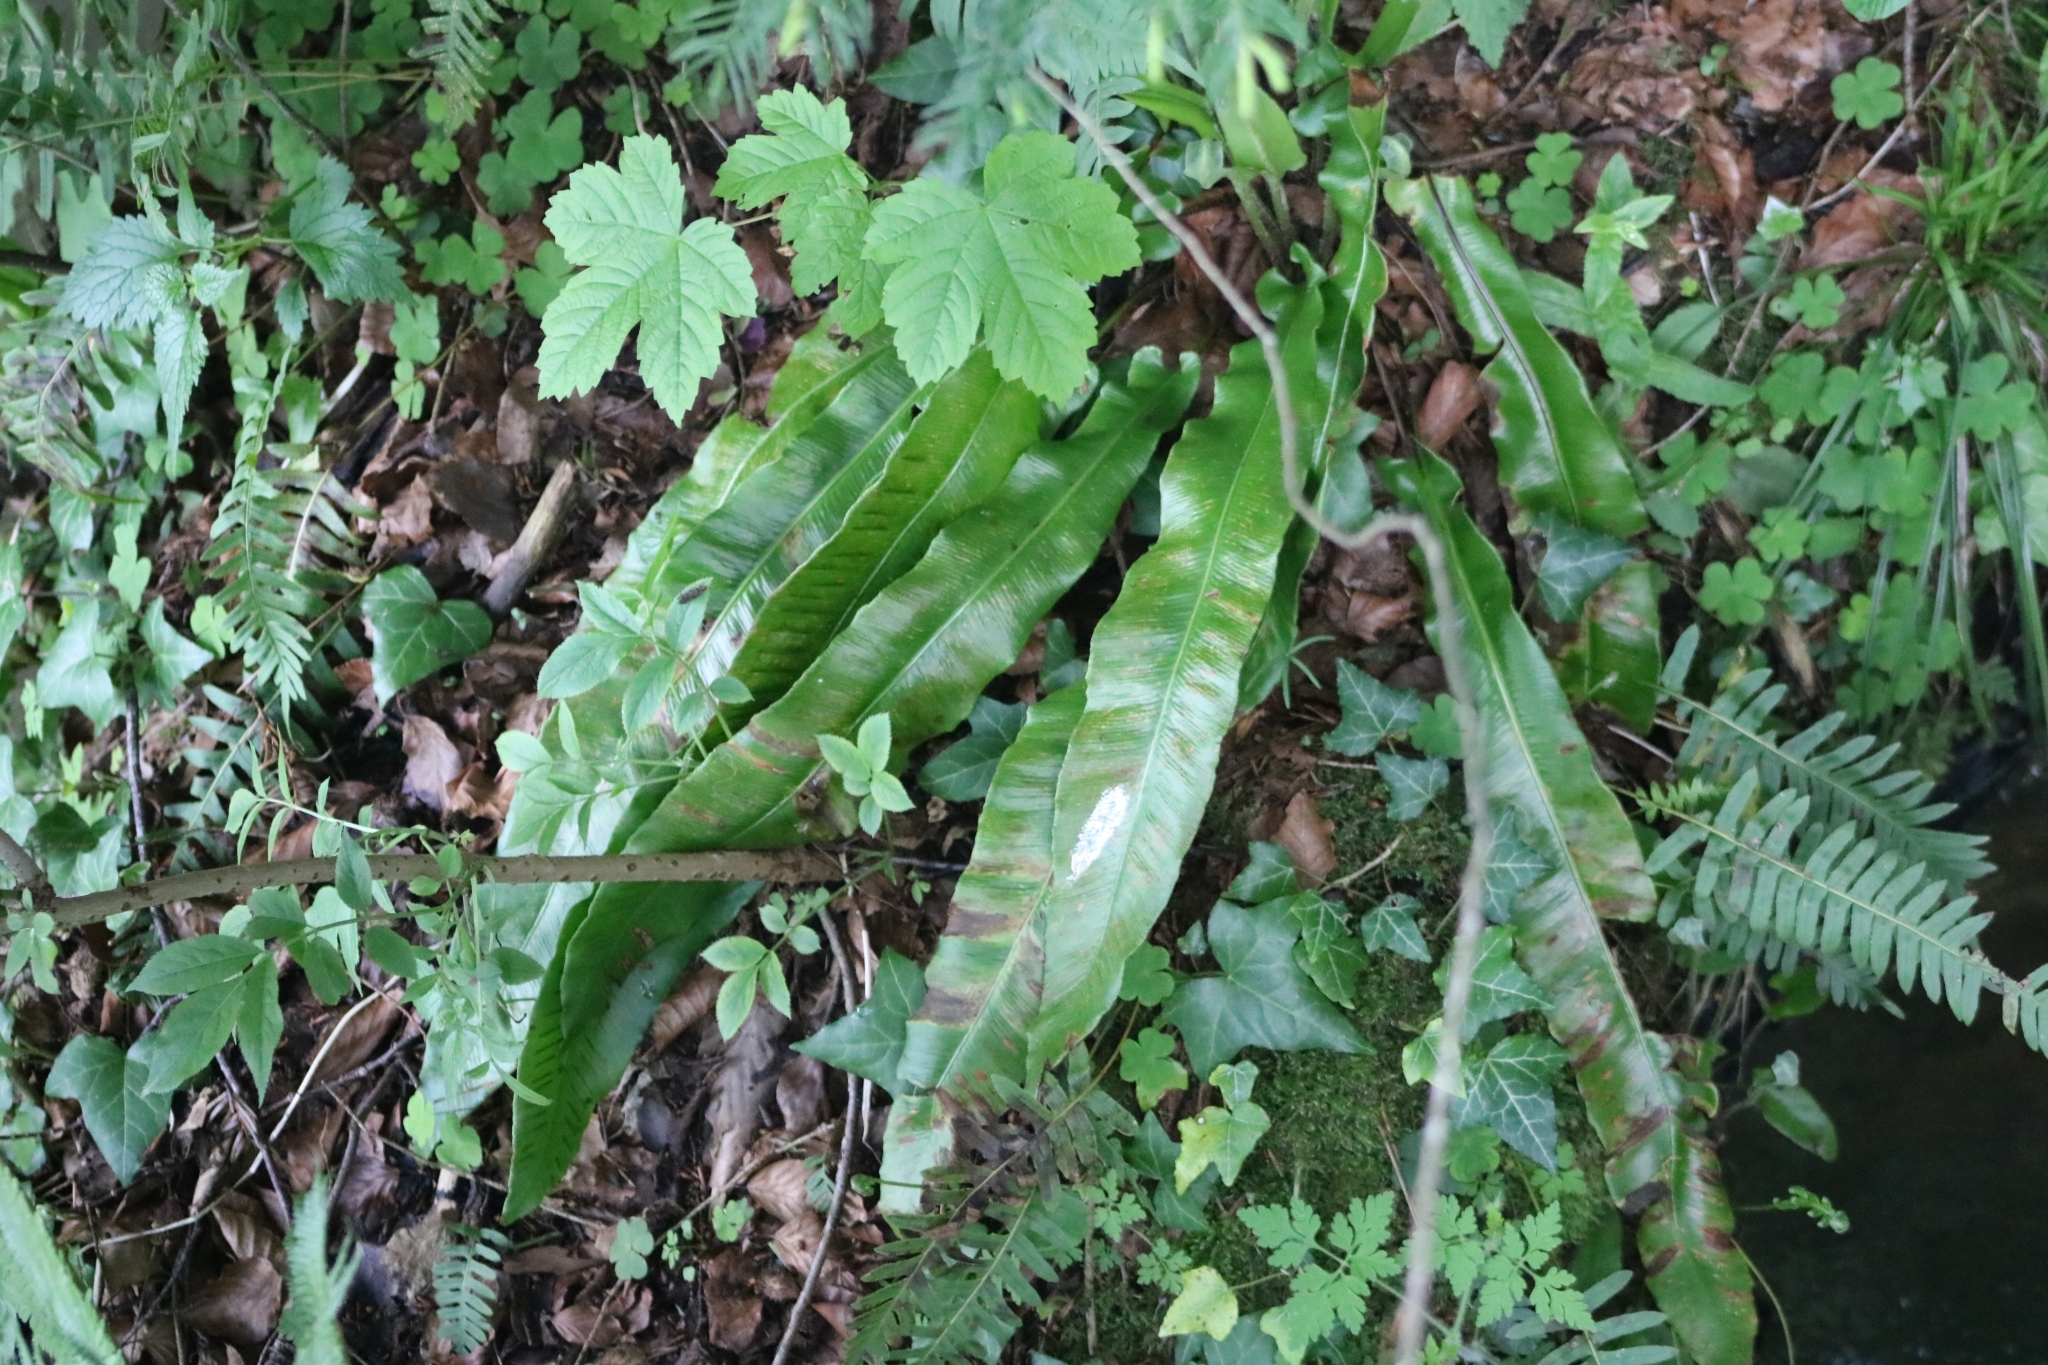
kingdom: Plantae
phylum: Tracheophyta
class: Polypodiopsida
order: Polypodiales
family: Aspleniaceae
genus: Asplenium
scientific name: Asplenium scolopendrium
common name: Hart's-tongue fern
